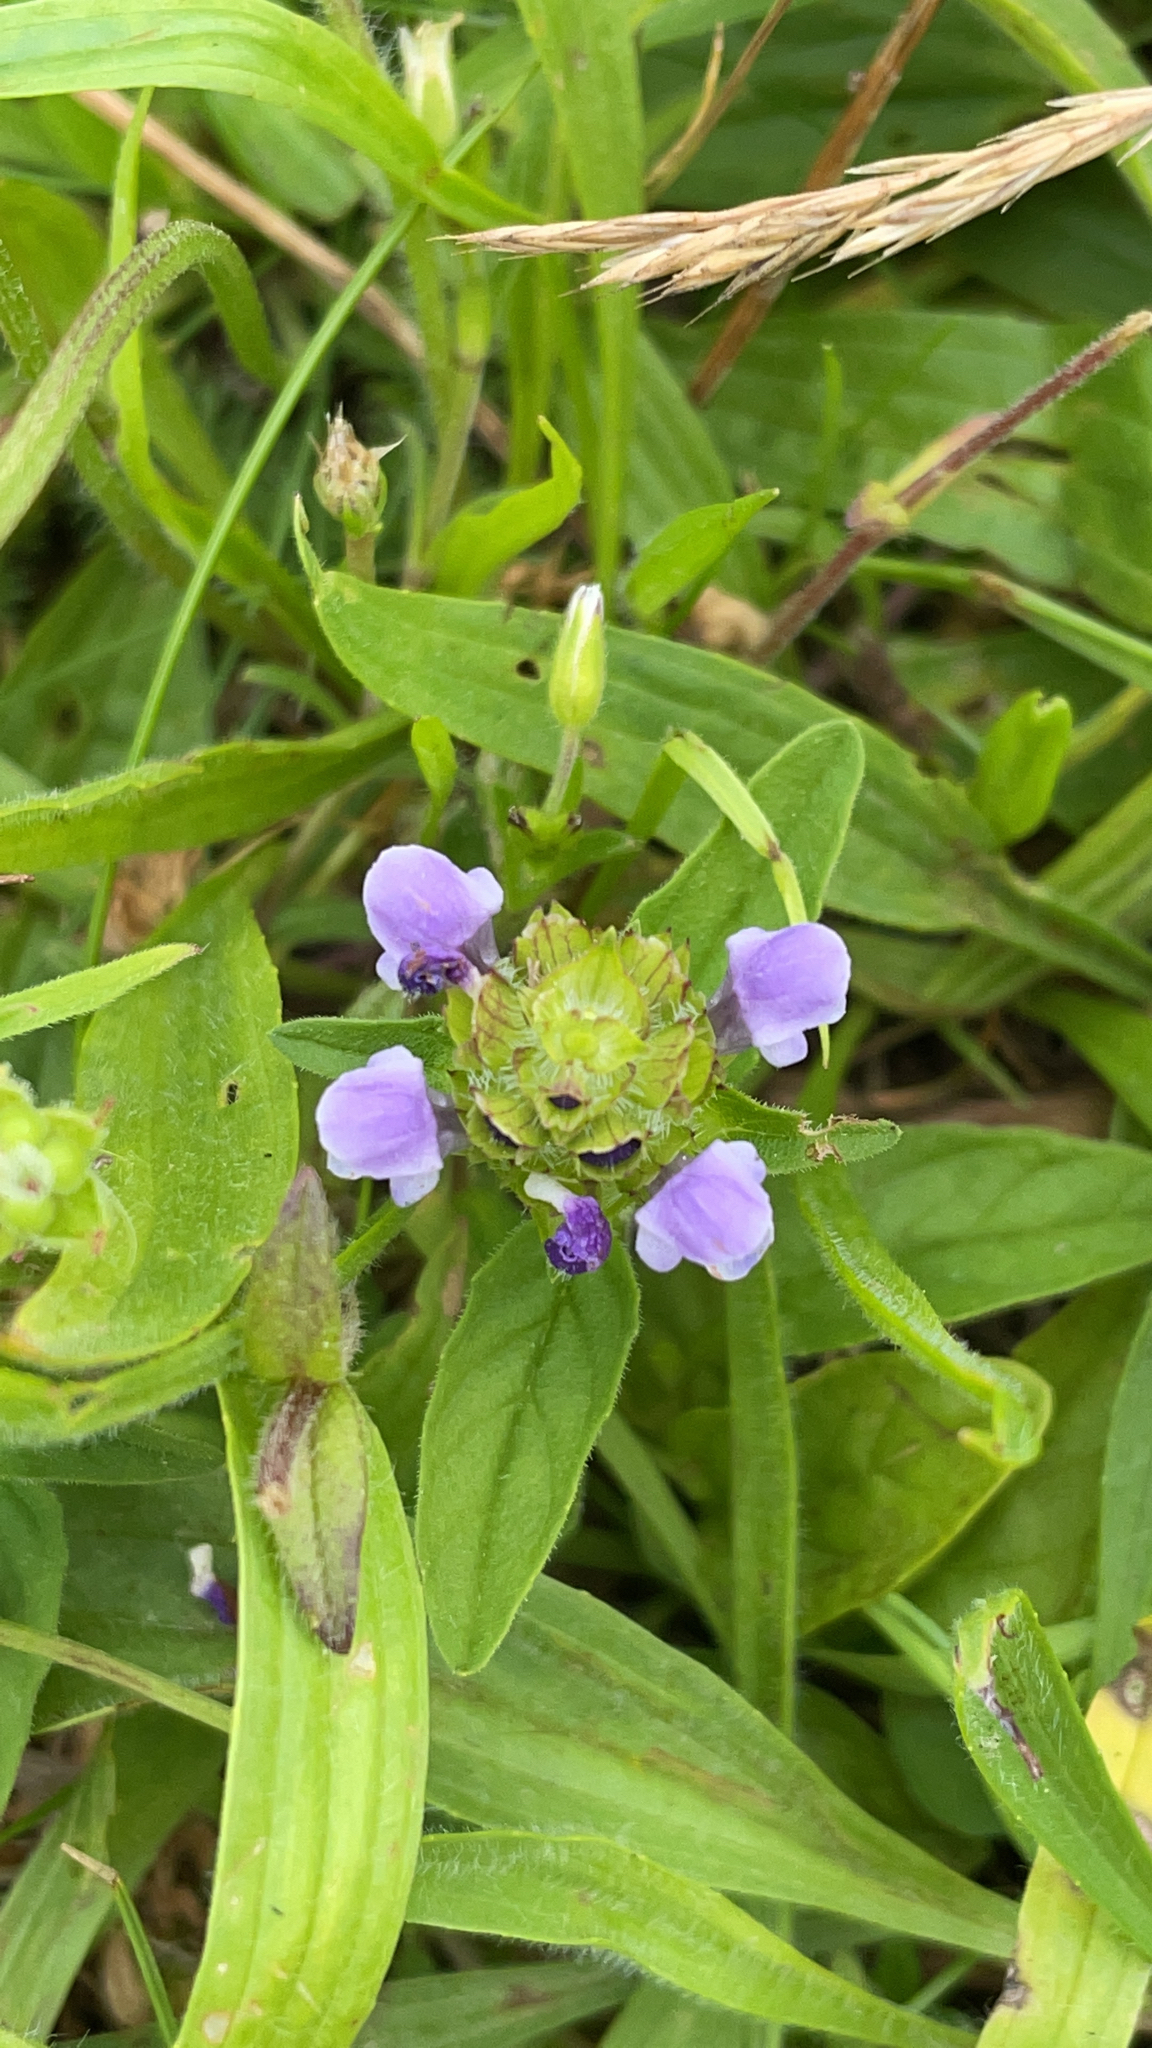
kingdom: Plantae
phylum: Tracheophyta
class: Magnoliopsida
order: Lamiales
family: Lamiaceae
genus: Prunella
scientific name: Prunella vulgaris
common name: Heal-all
